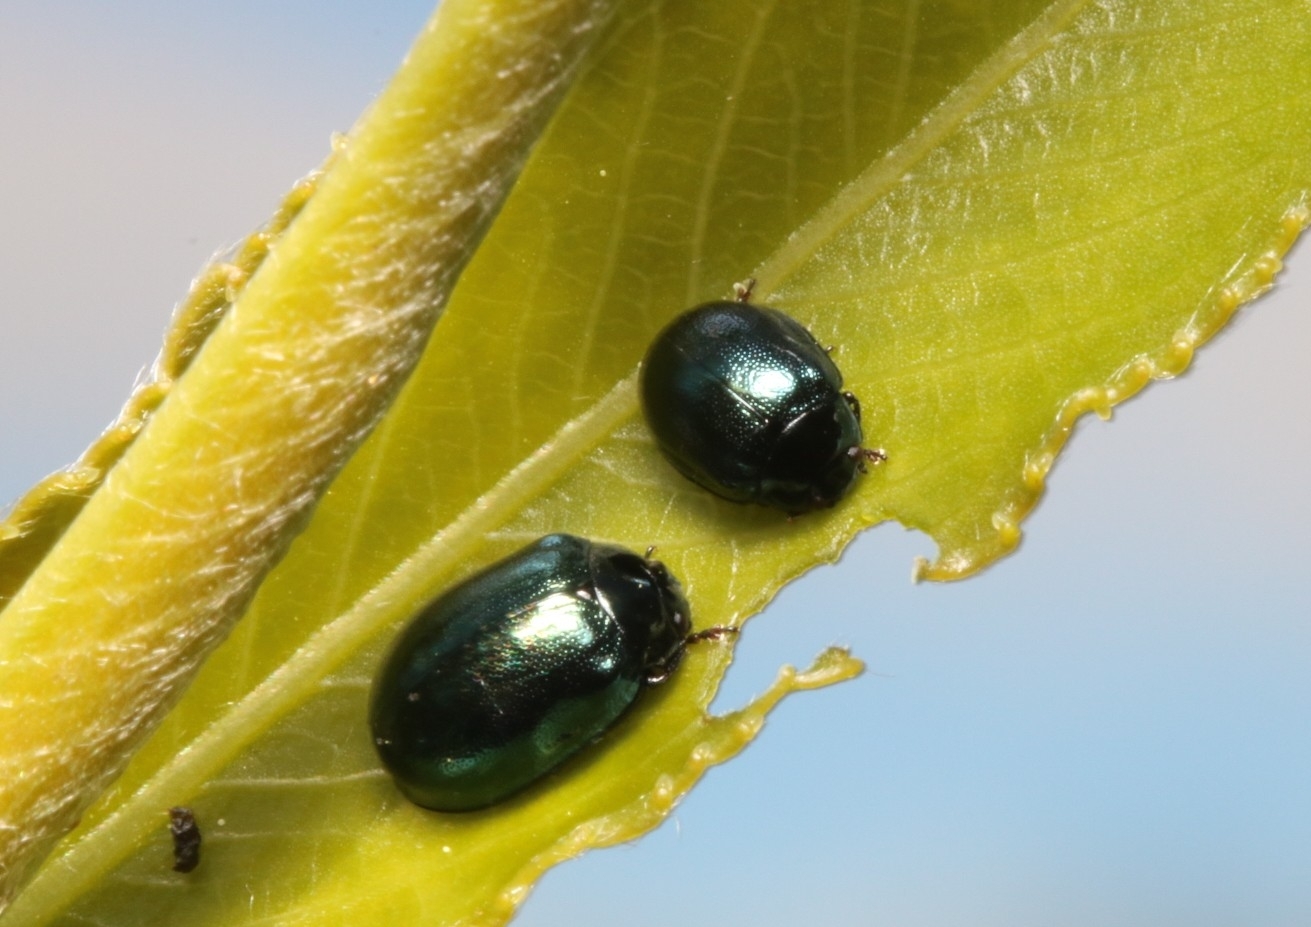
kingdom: Animalia
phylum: Arthropoda
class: Insecta
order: Coleoptera
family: Chrysomelidae
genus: Plagiodera
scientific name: Plagiodera versicolora
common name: Imported willow leaf beetle
